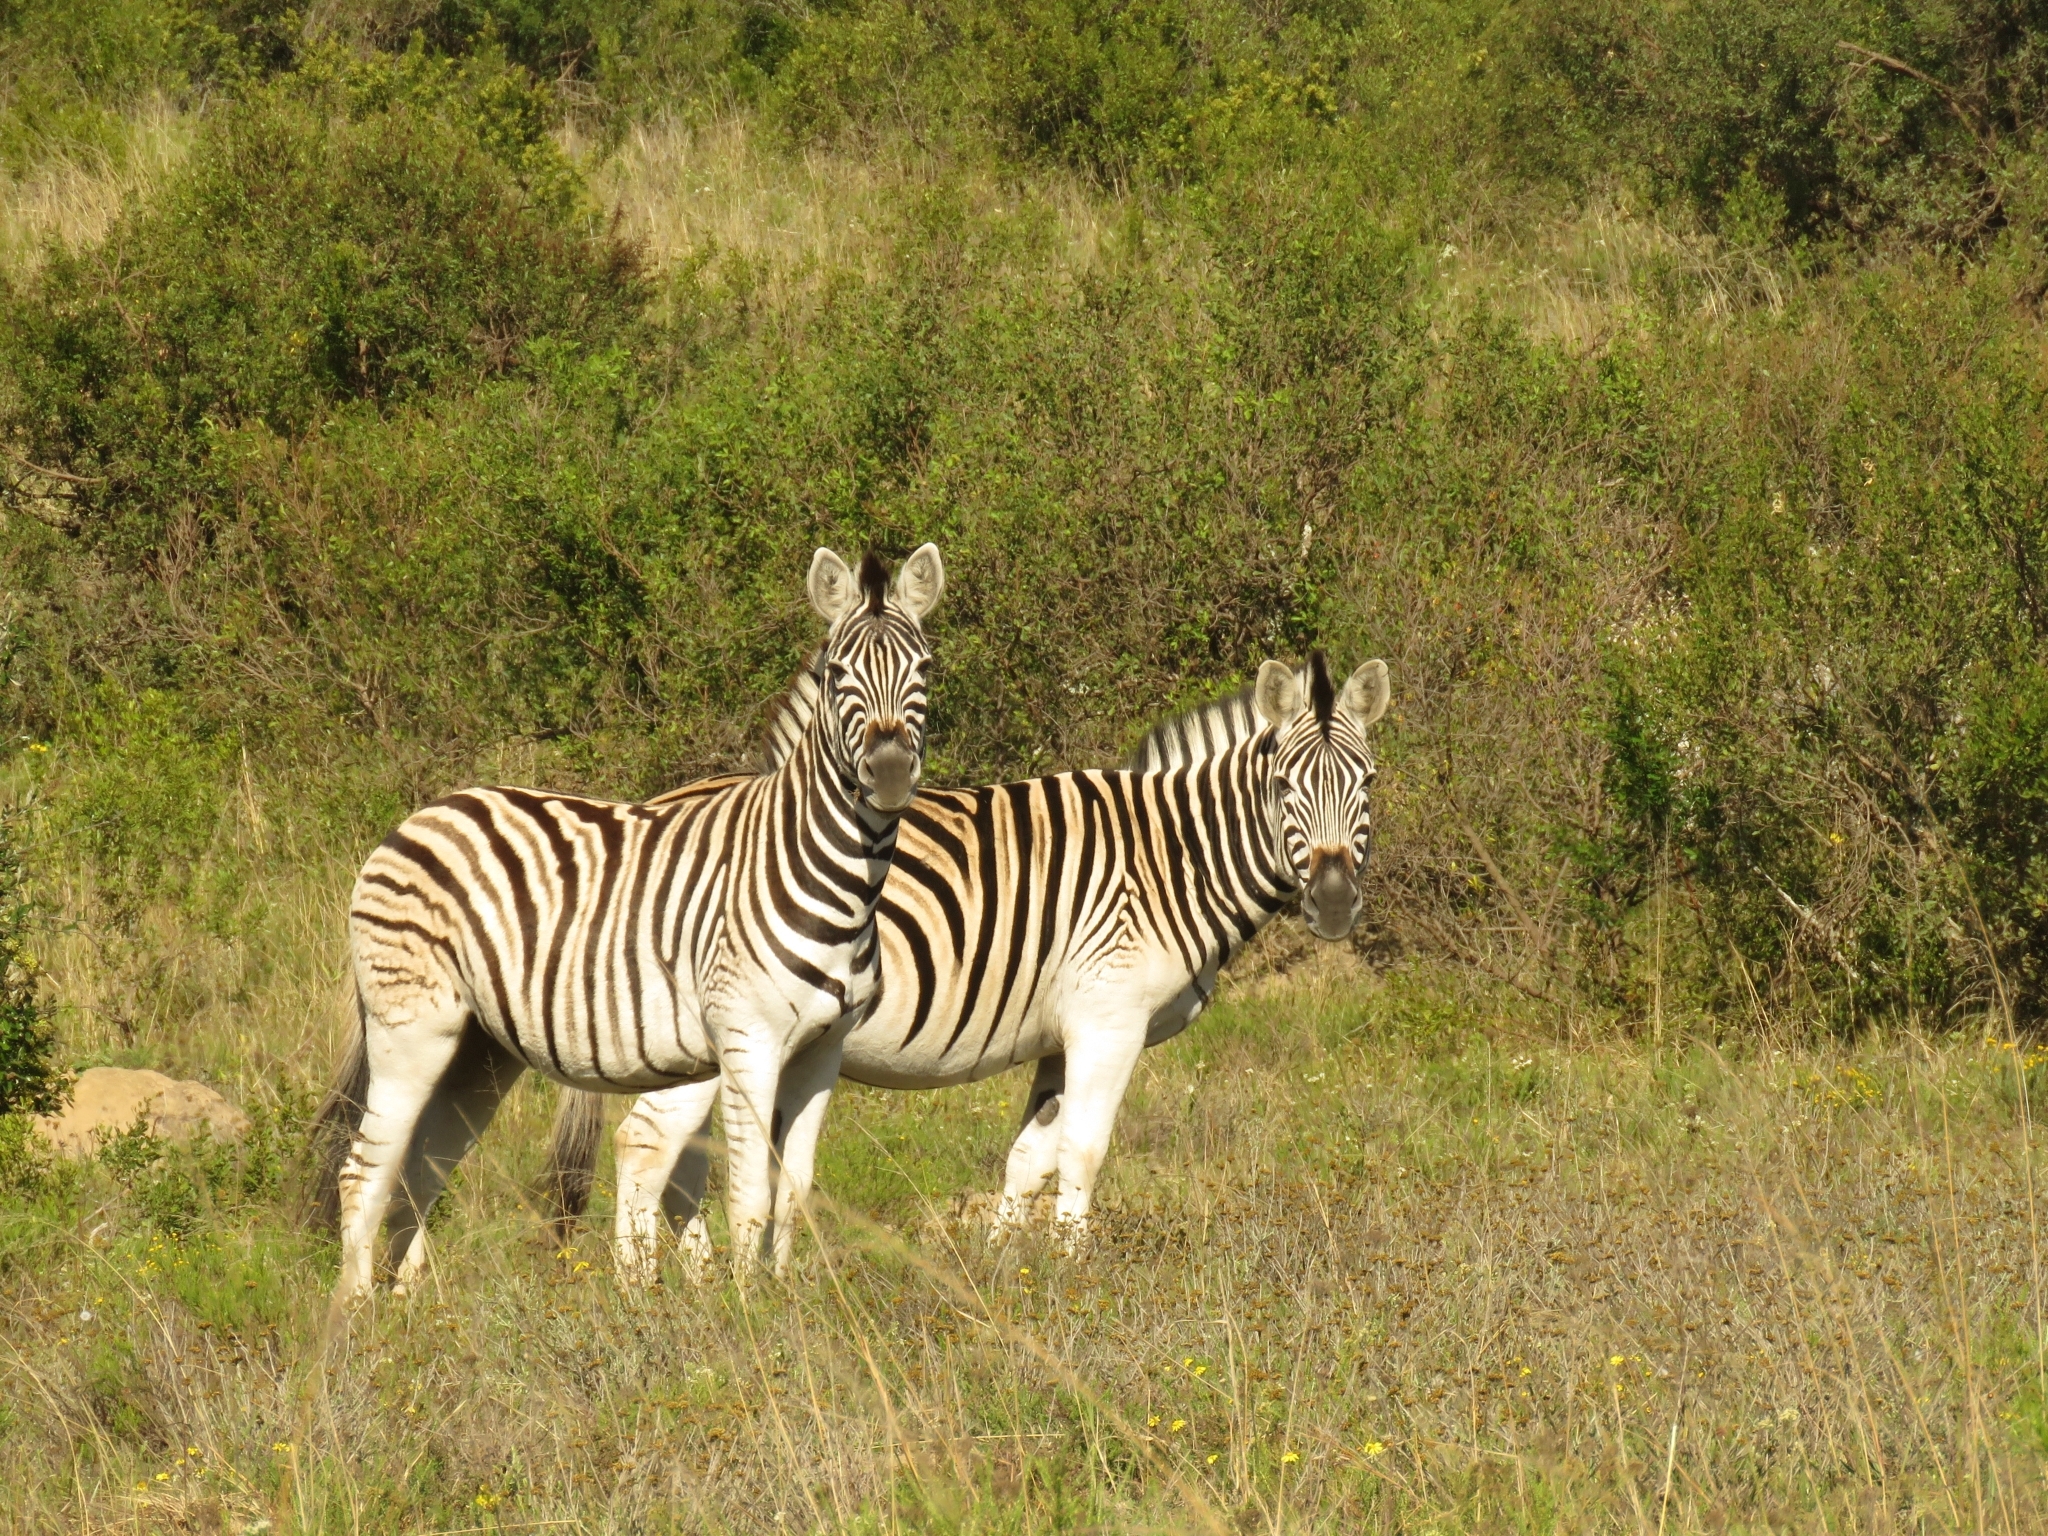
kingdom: Animalia
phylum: Chordata
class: Mammalia
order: Perissodactyla
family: Equidae
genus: Equus
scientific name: Equus quagga
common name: Plains zebra
